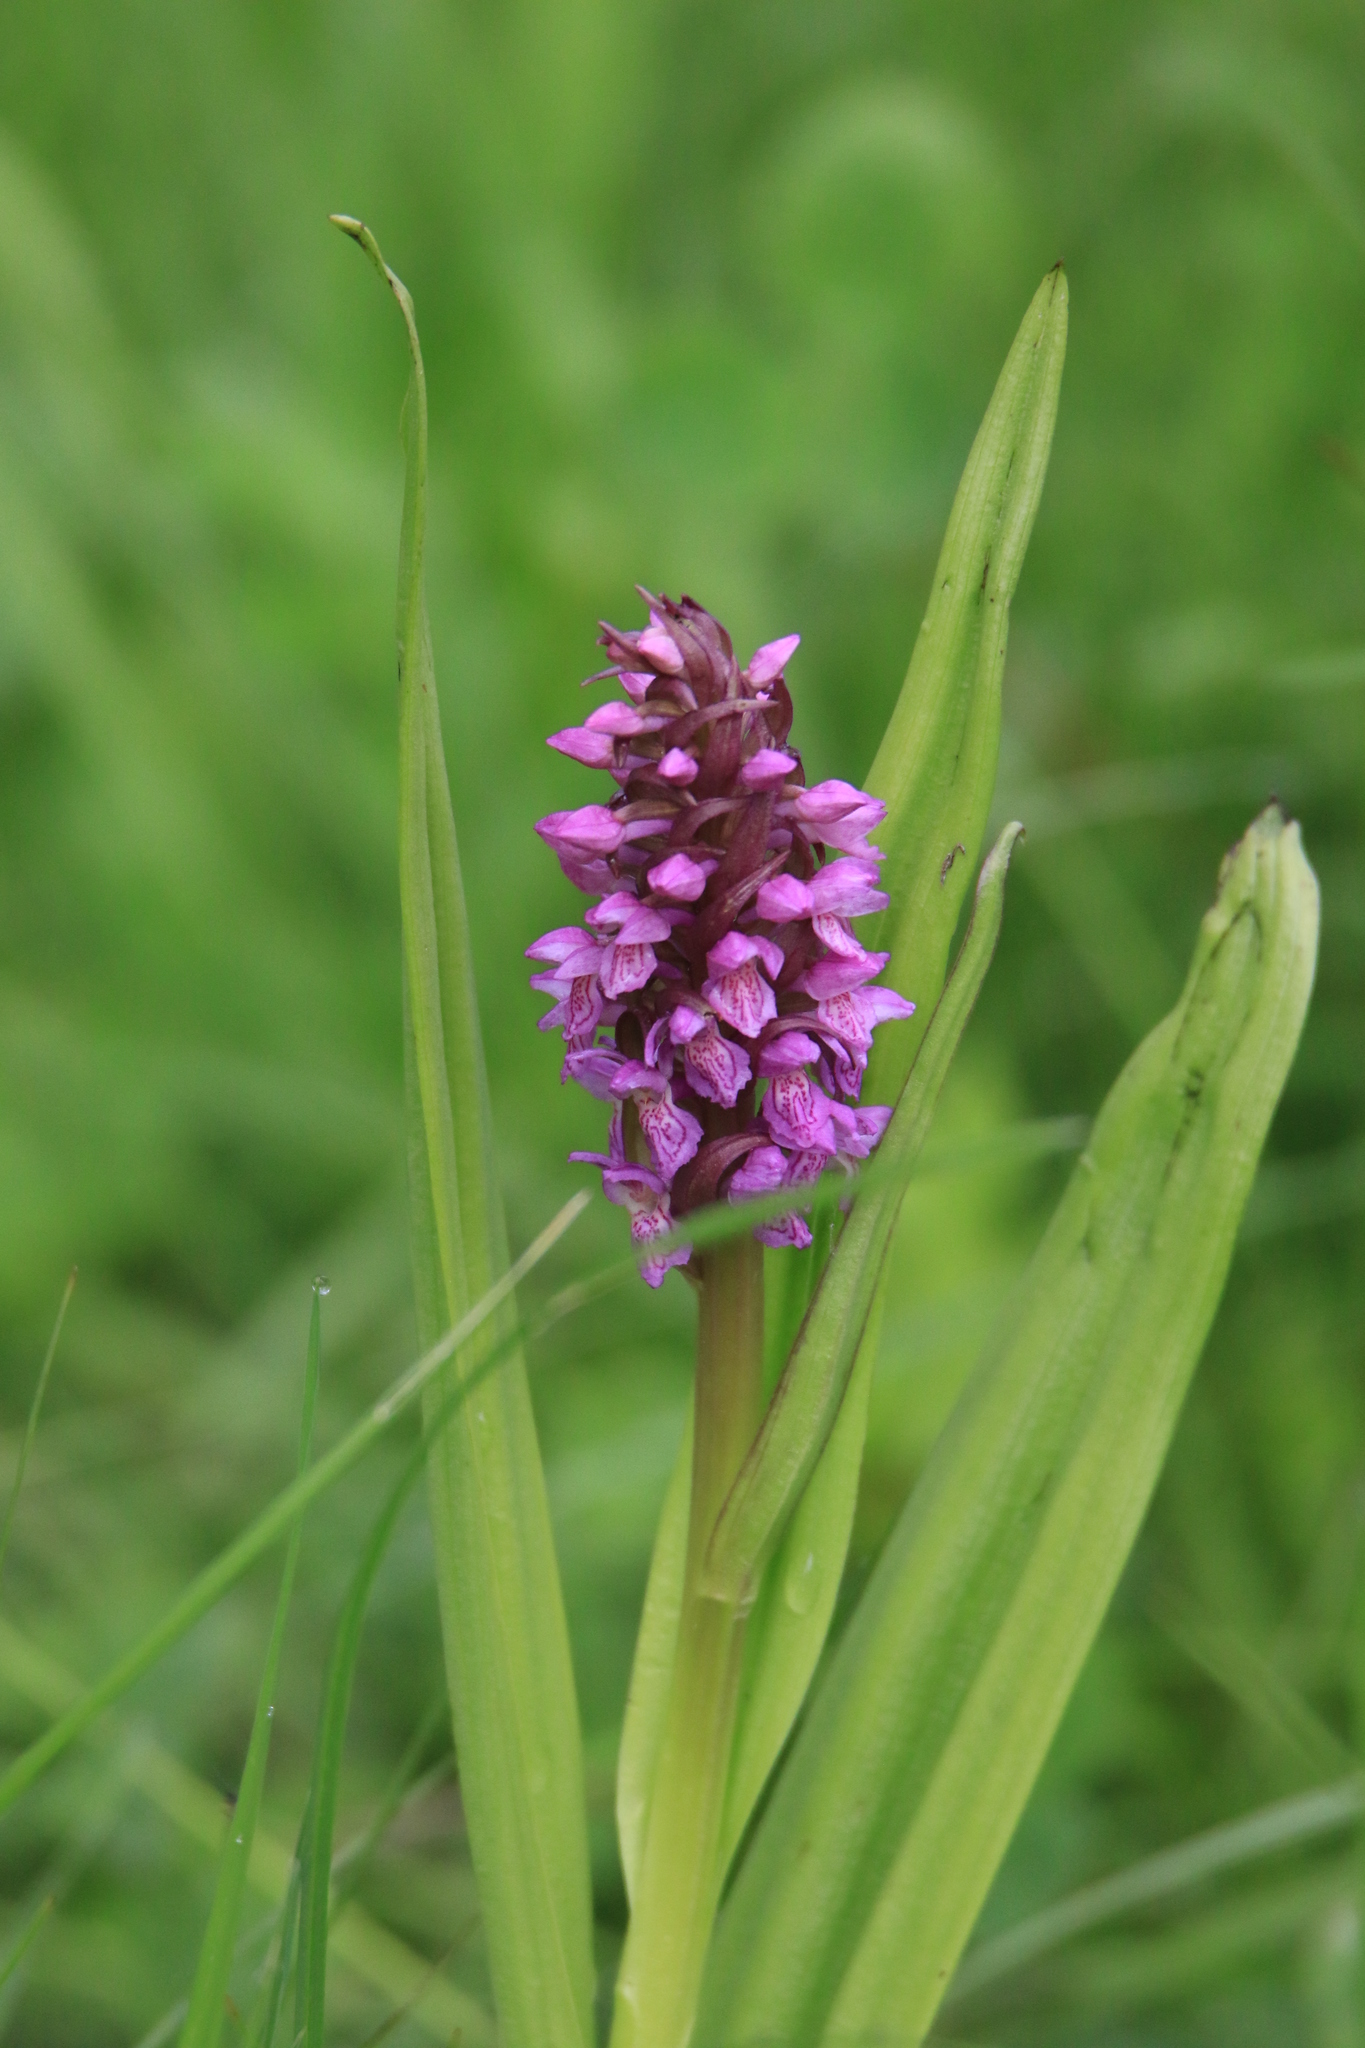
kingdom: Plantae
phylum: Tracheophyta
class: Liliopsida
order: Asparagales
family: Orchidaceae
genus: Dactylorhiza
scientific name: Dactylorhiza incarnata
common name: Early marsh-orchid
